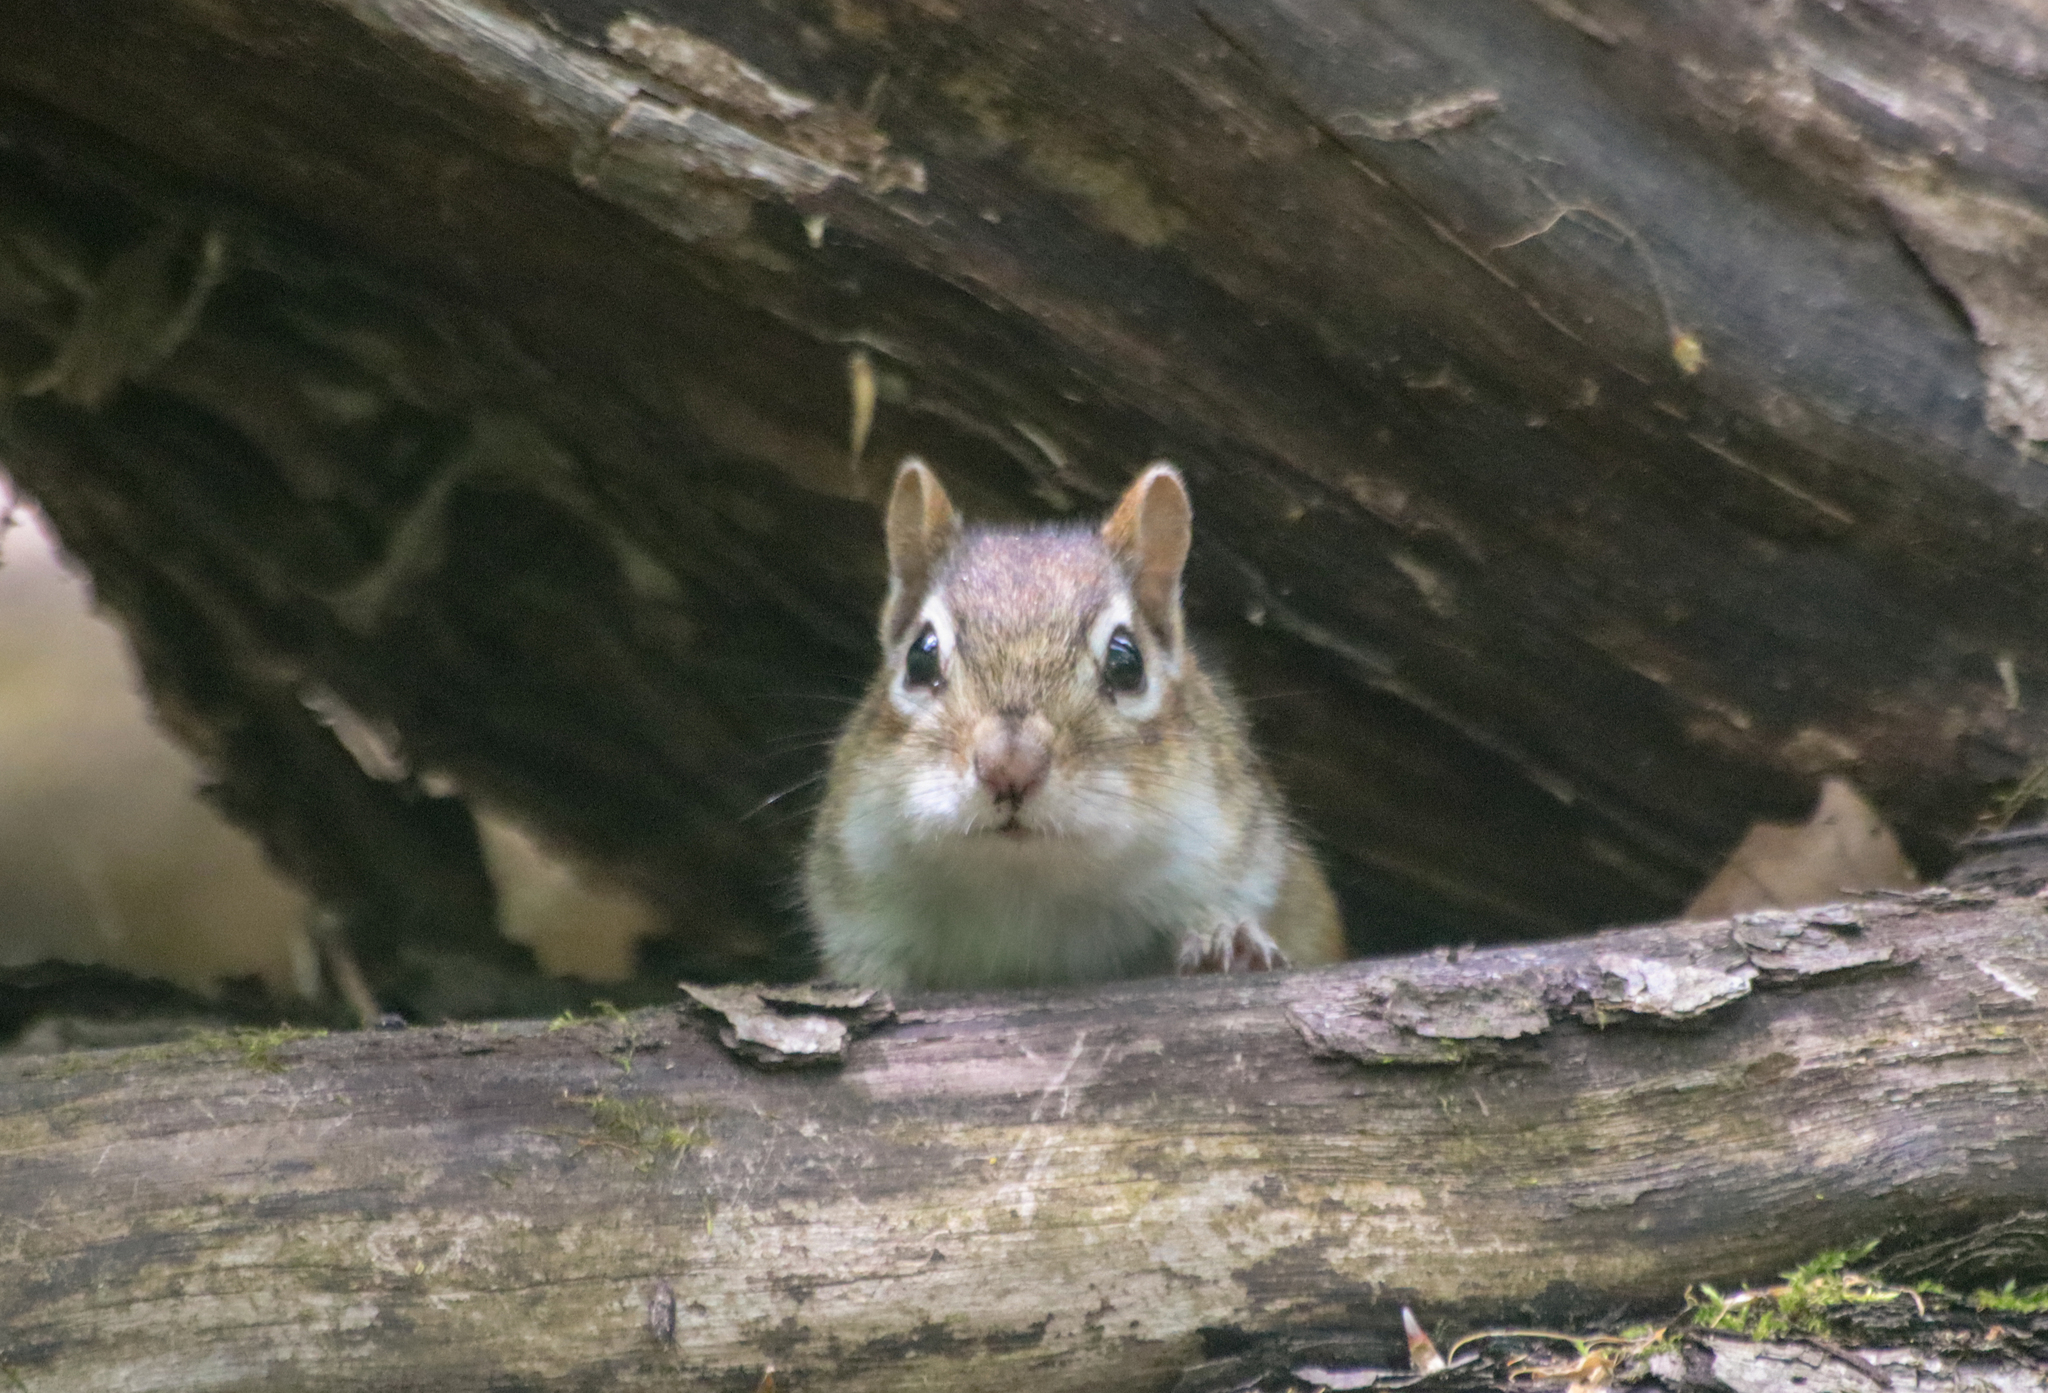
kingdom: Animalia
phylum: Chordata
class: Mammalia
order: Rodentia
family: Sciuridae
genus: Tamias
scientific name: Tamias striatus
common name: Eastern chipmunk
